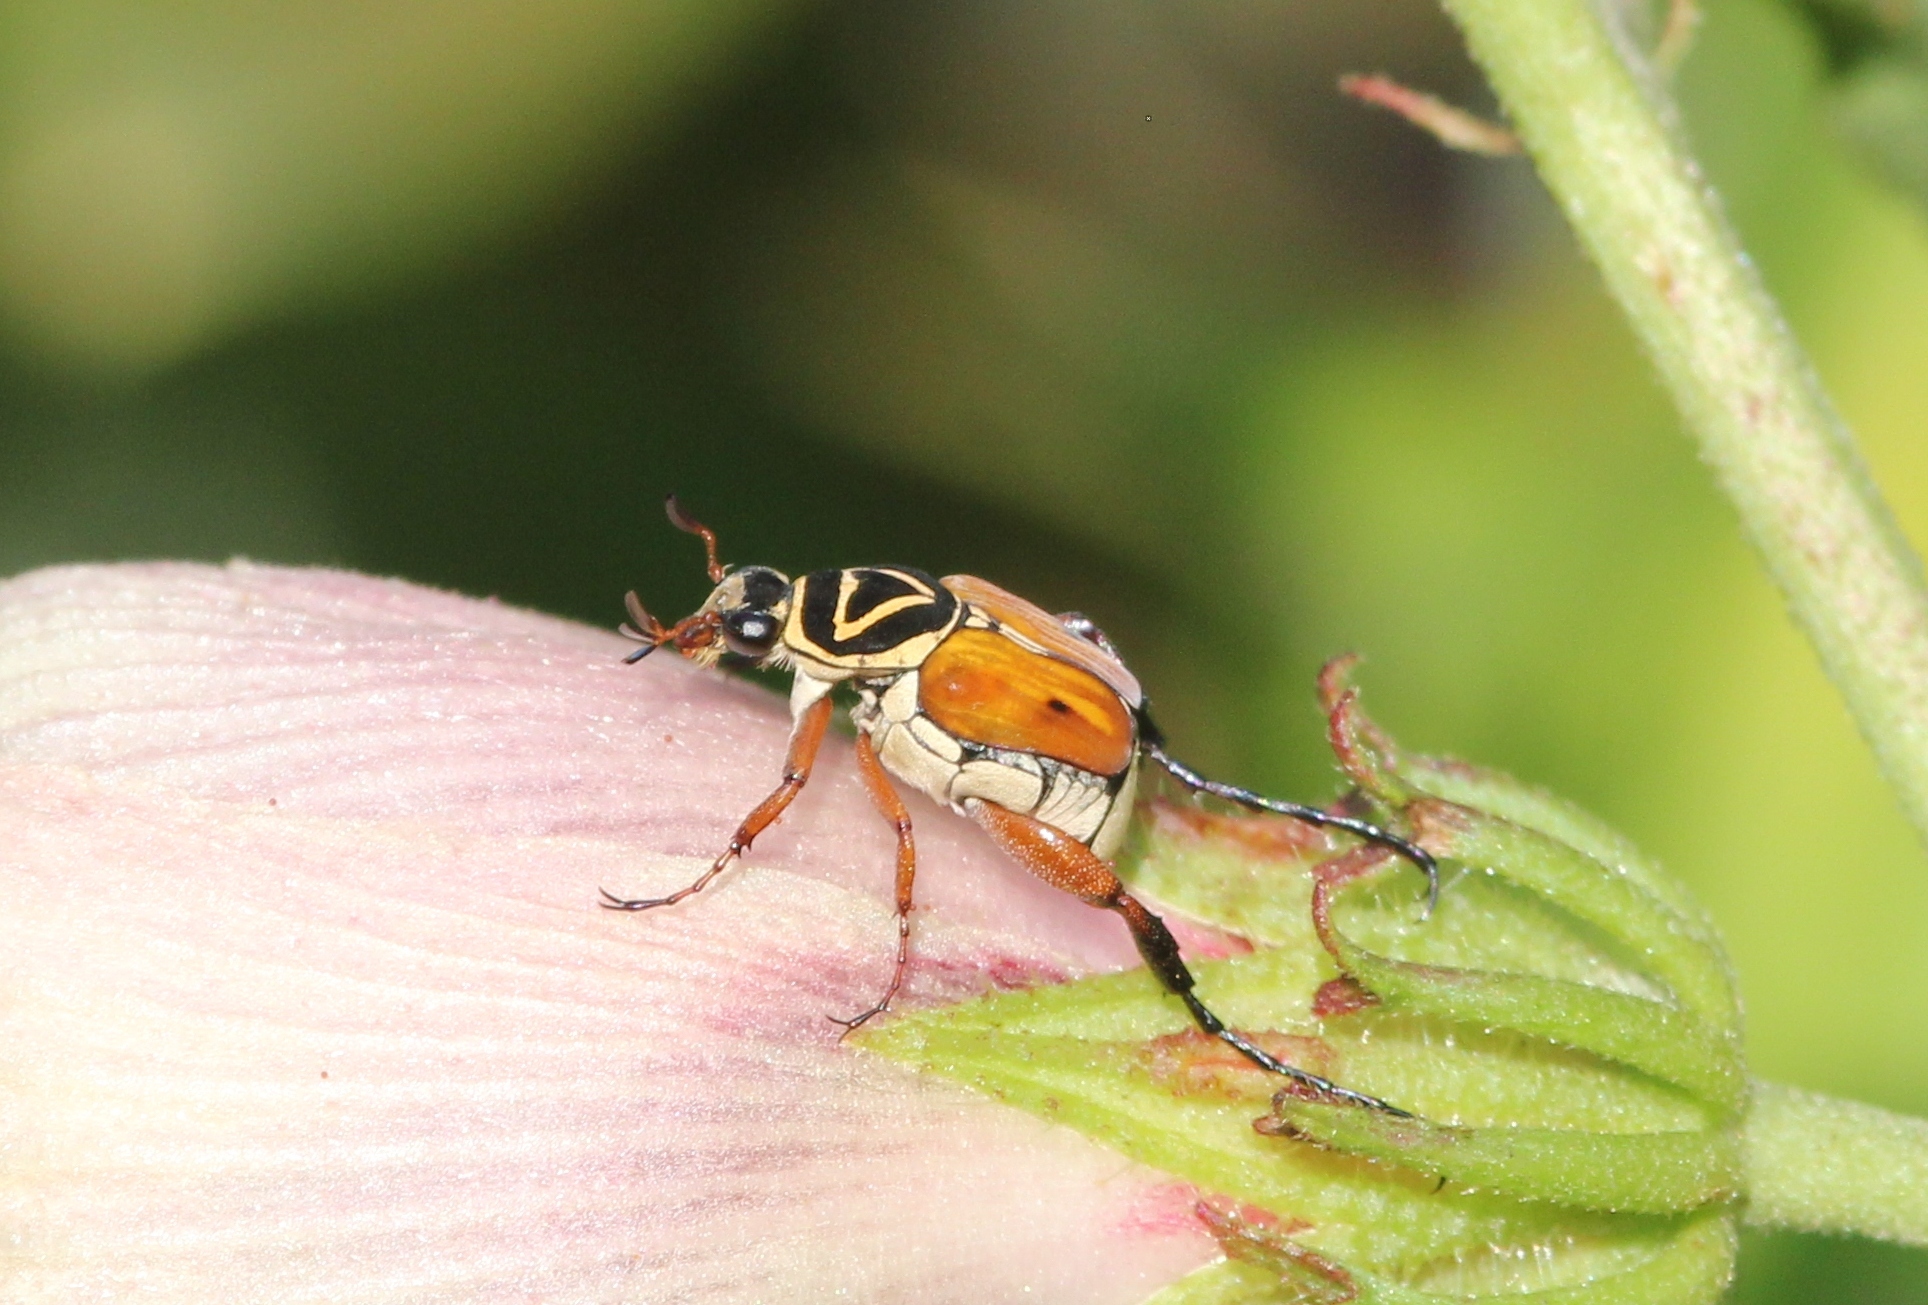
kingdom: Animalia
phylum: Arthropoda
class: Insecta
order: Coleoptera
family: Scarabaeidae
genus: Trigonopeltastes
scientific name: Trigonopeltastes delta
